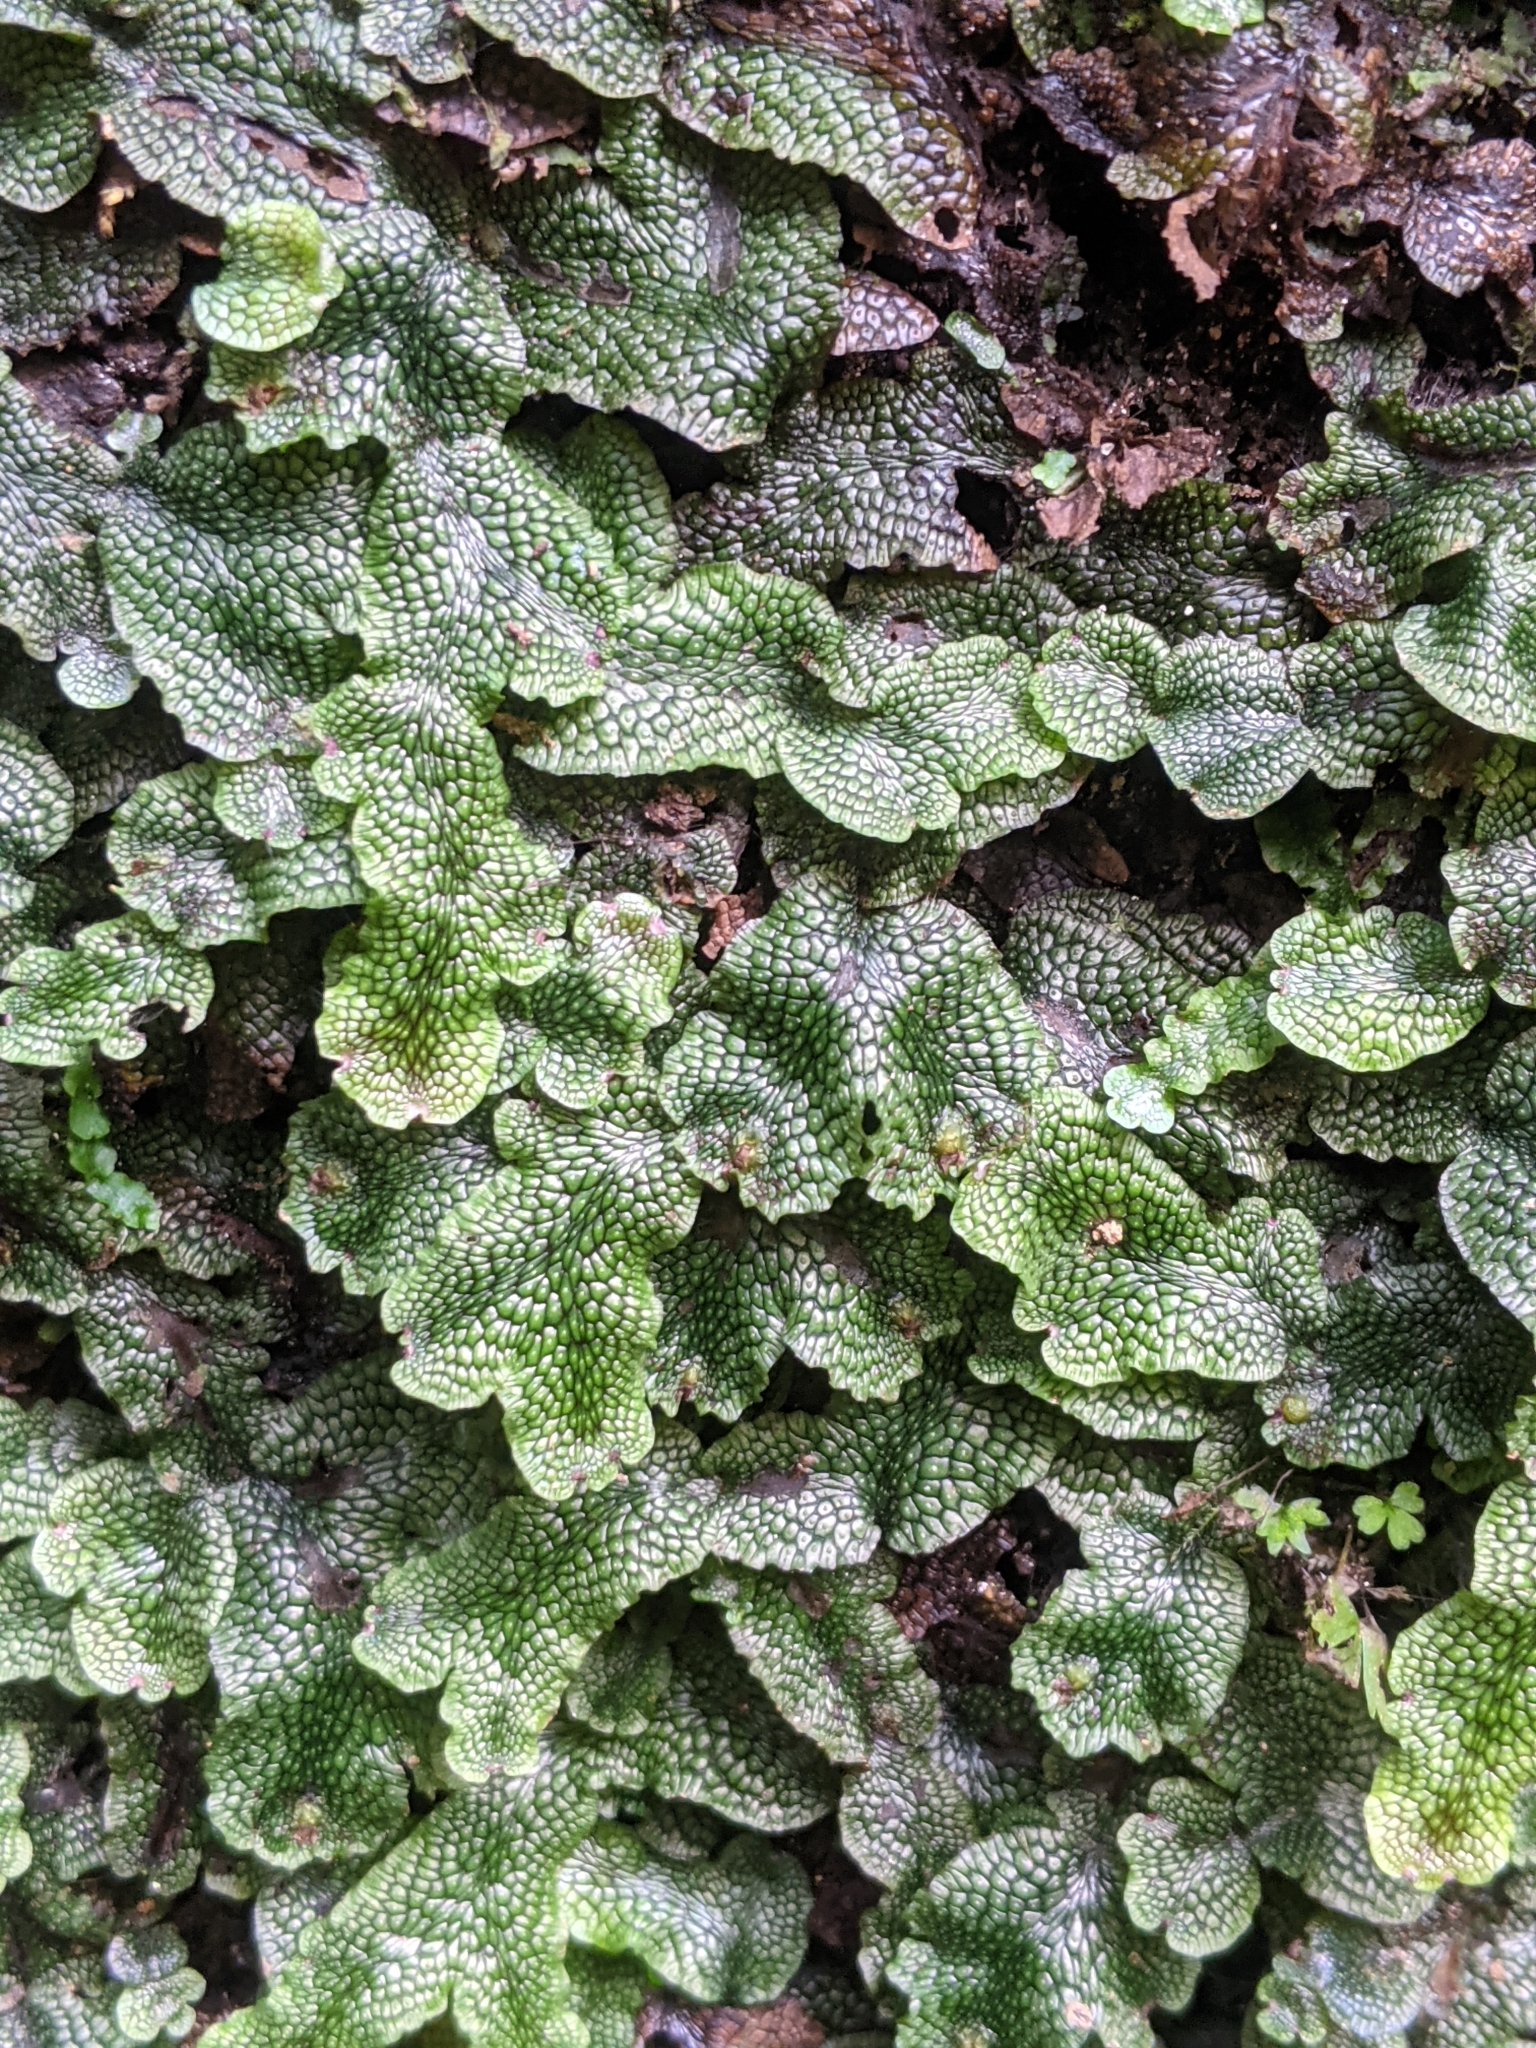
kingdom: Plantae
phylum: Marchantiophyta
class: Marchantiopsida
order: Marchantiales
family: Conocephalaceae
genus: Conocephalum
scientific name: Conocephalum salebrosum
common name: Cat-tongue liverwort
